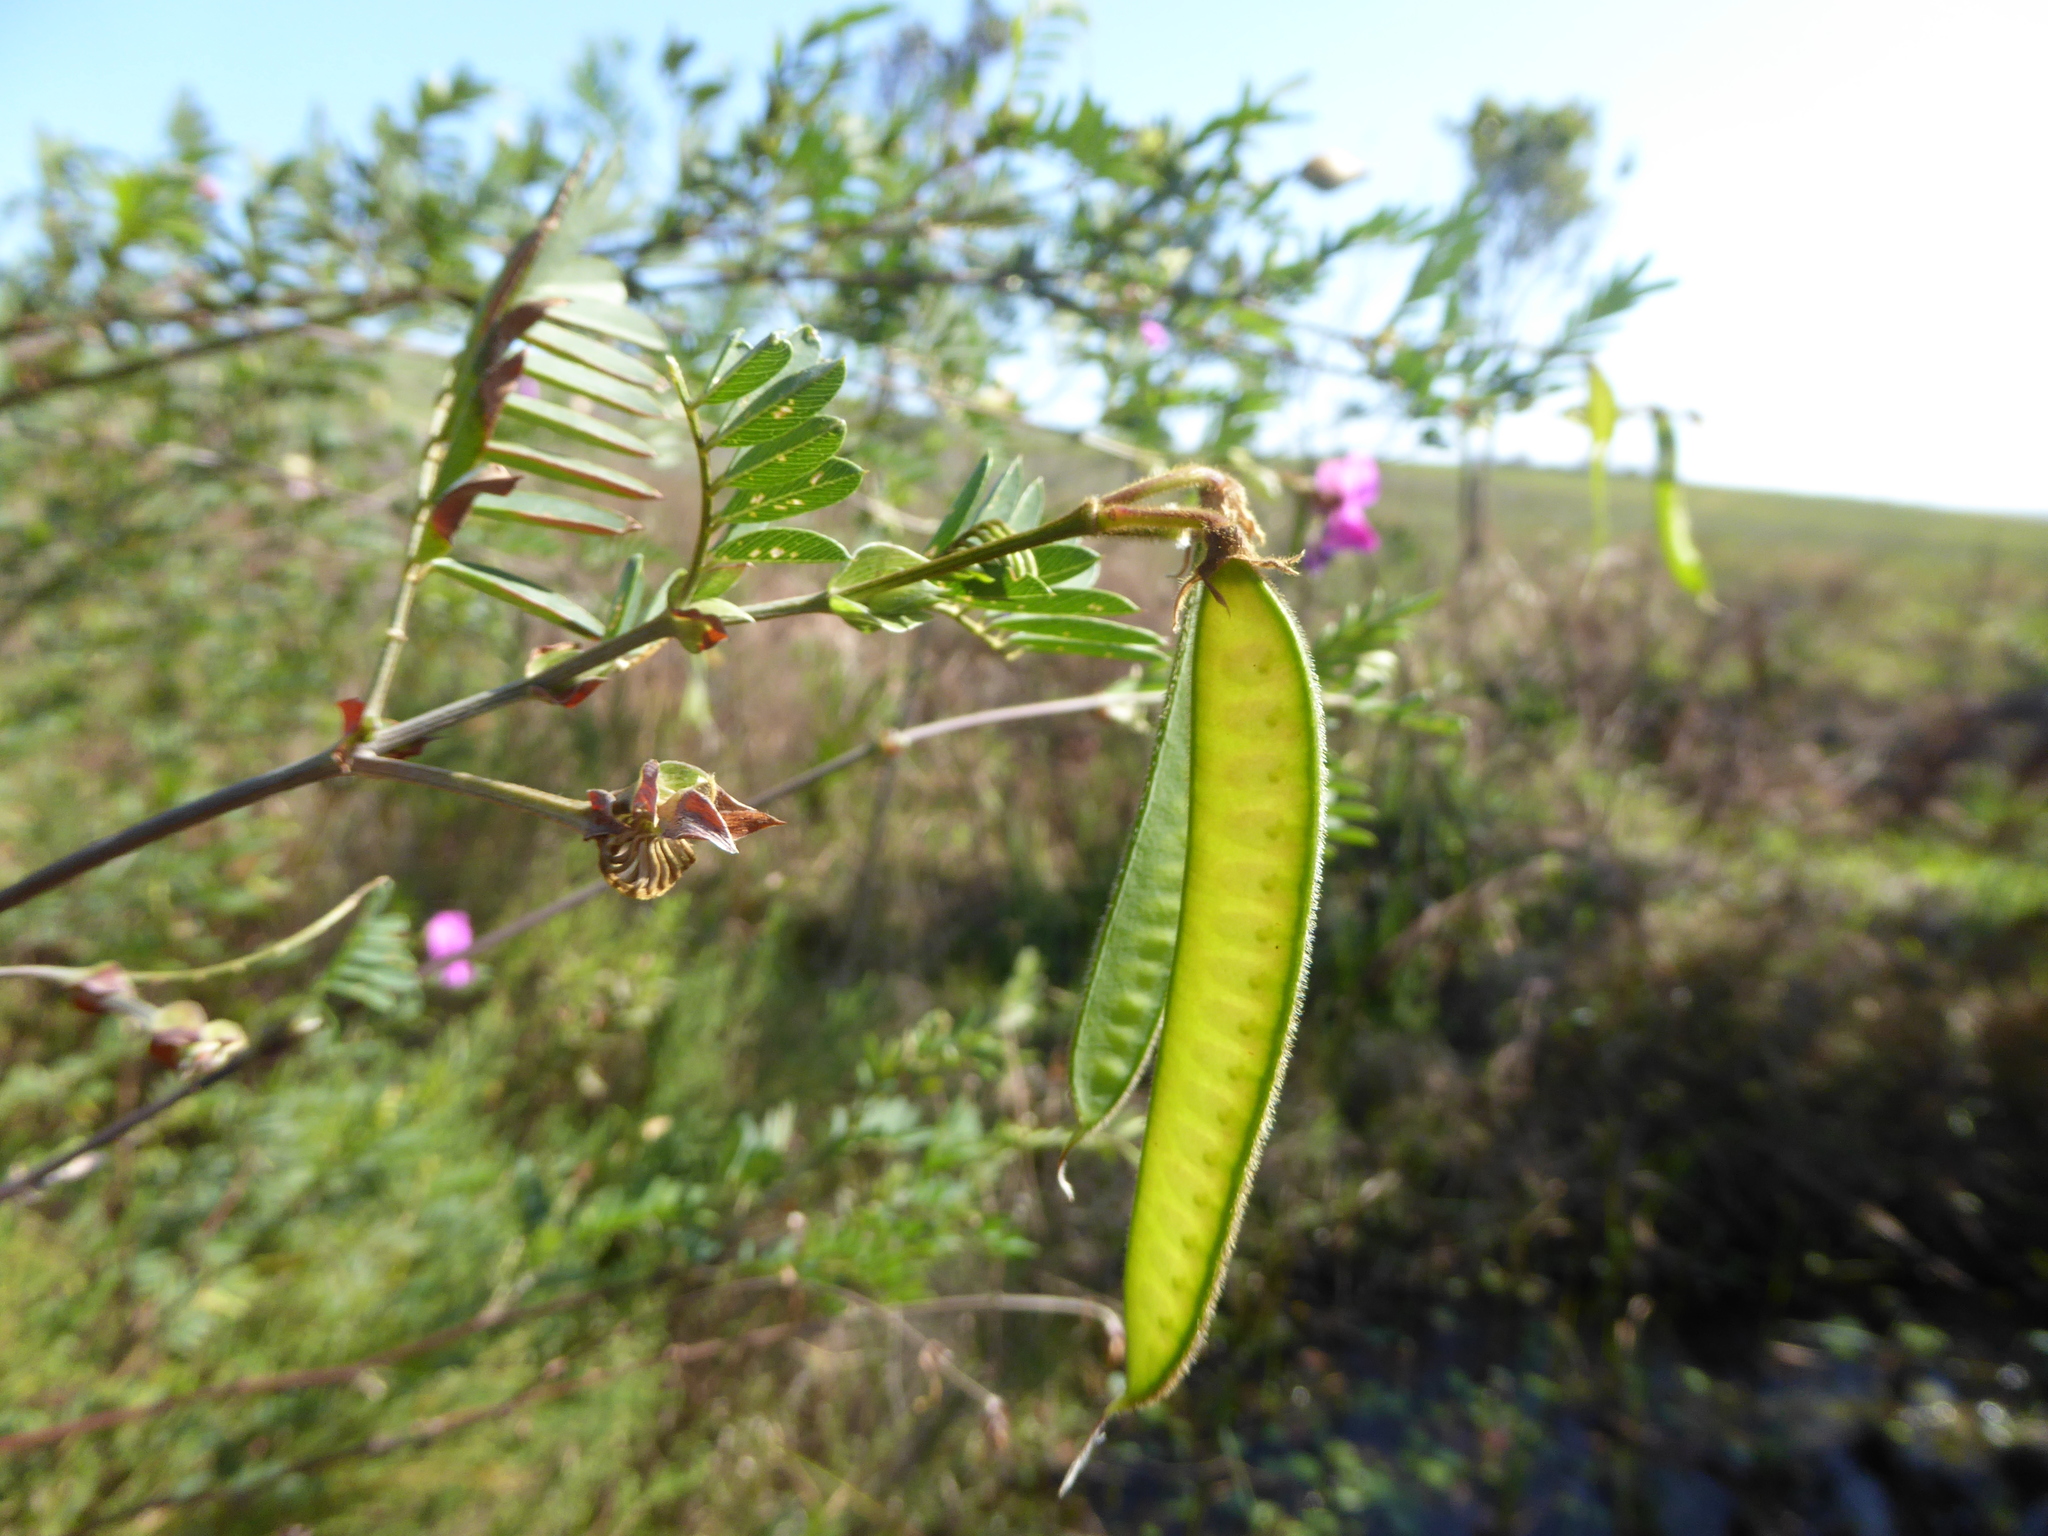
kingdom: Plantae
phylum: Tracheophyta
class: Magnoliopsida
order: Fabales
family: Fabaceae
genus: Tephrosia
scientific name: Tephrosia grandiflora
